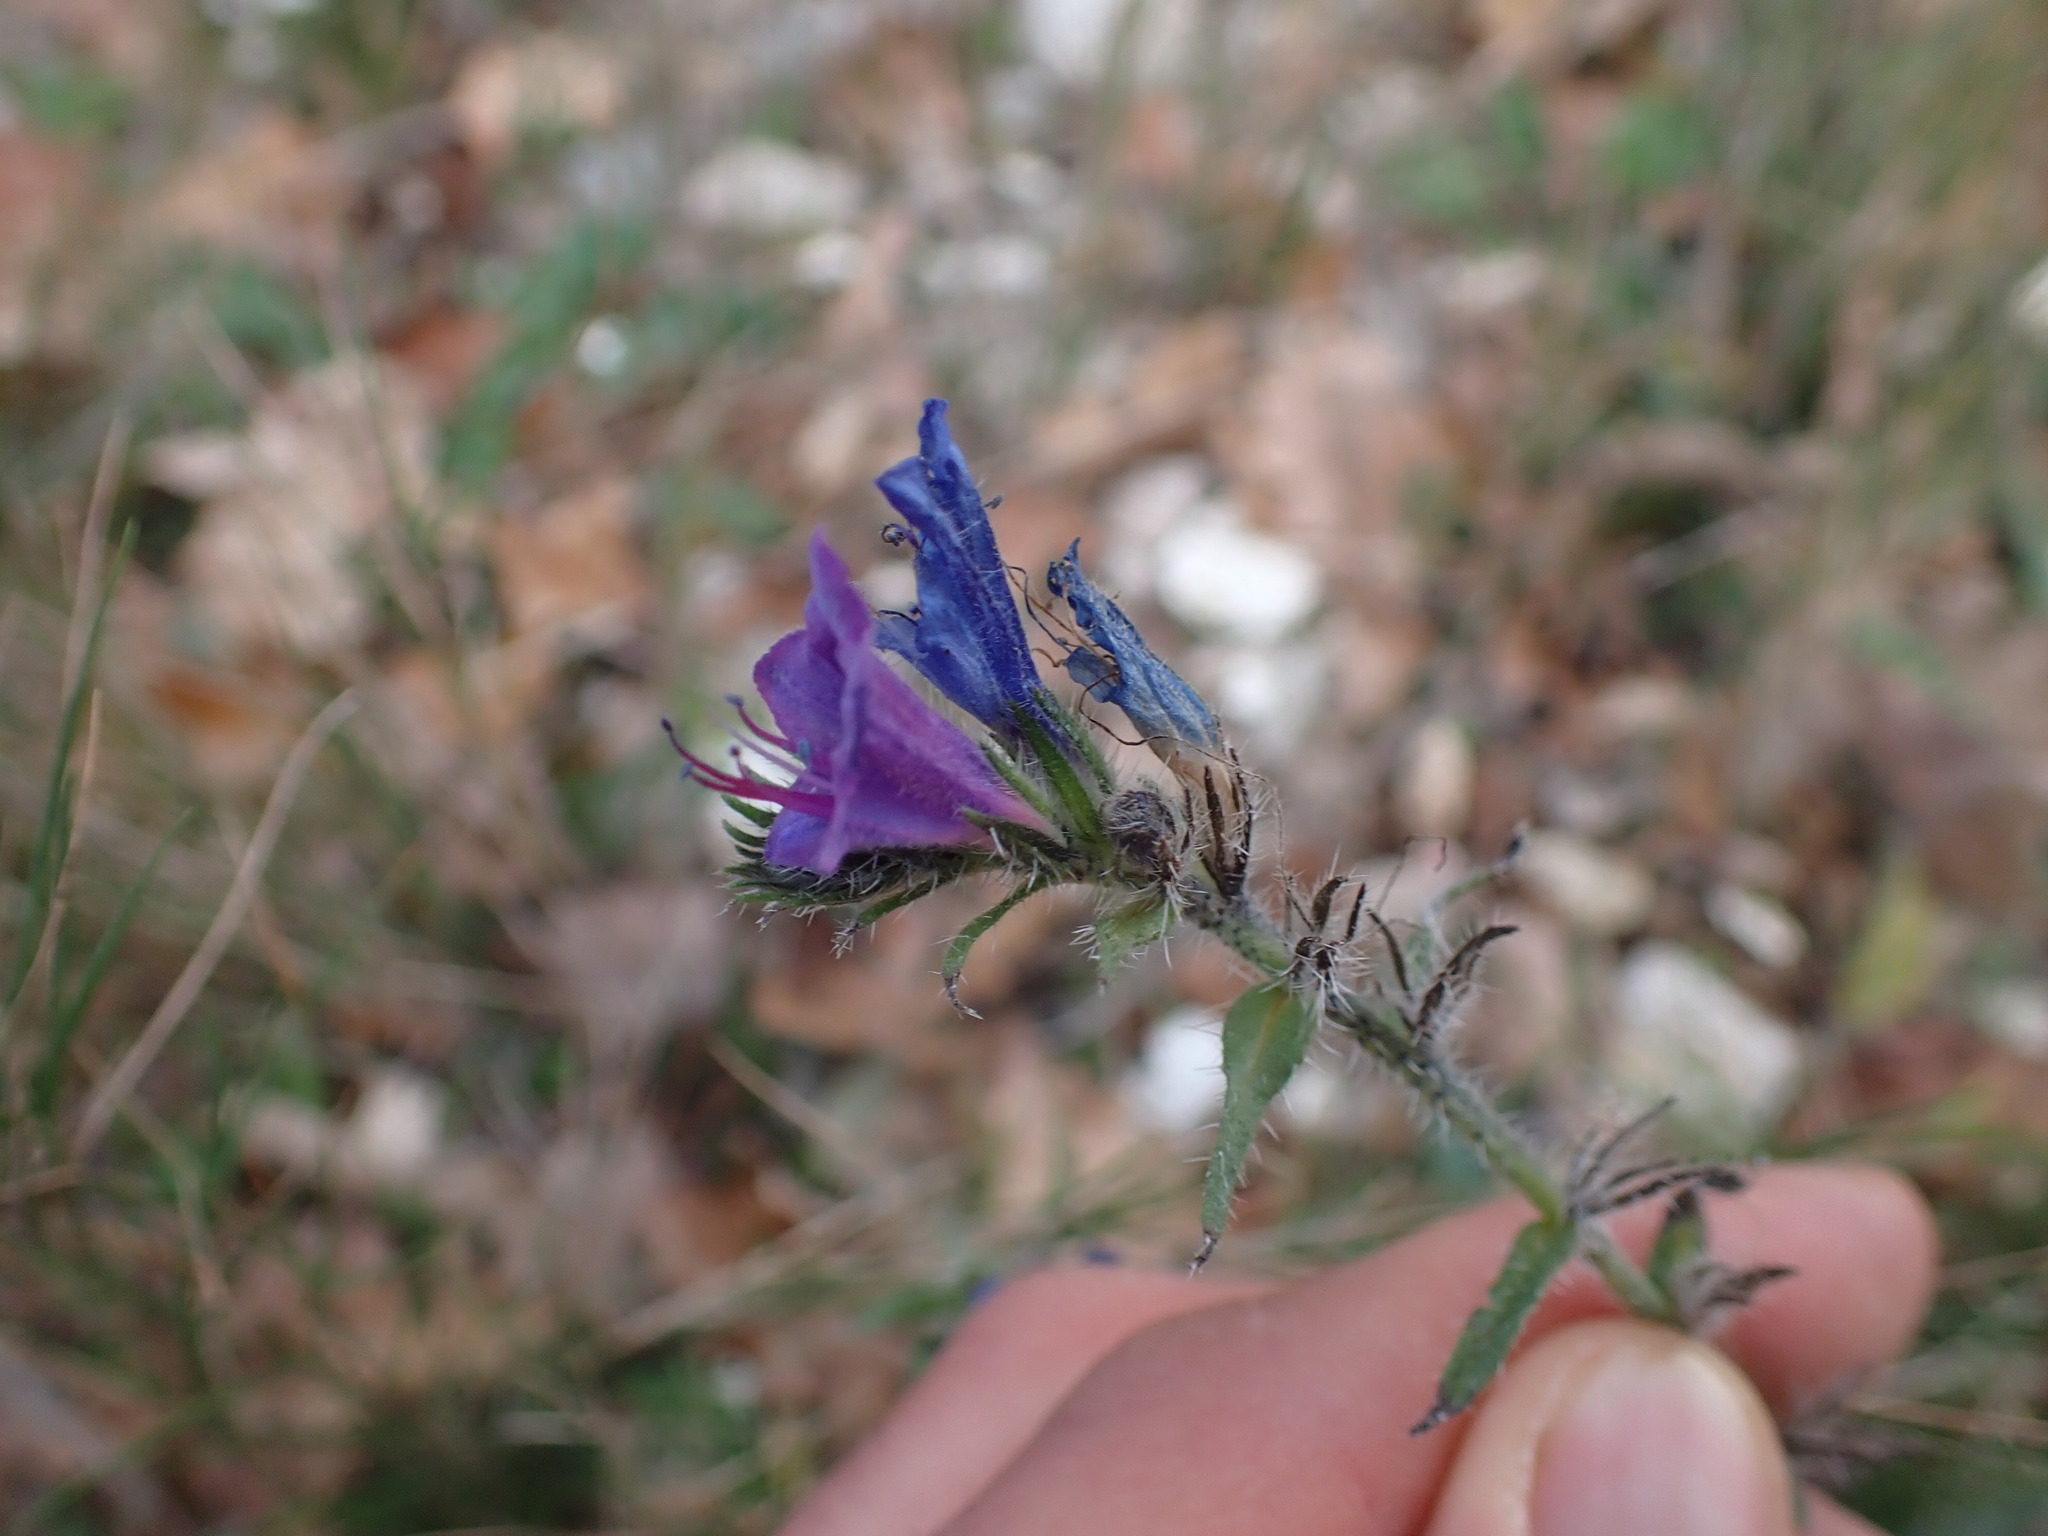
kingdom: Plantae
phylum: Tracheophyta
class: Magnoliopsida
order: Boraginales
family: Boraginaceae
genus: Echium
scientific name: Echium vulgare
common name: Common viper's bugloss
